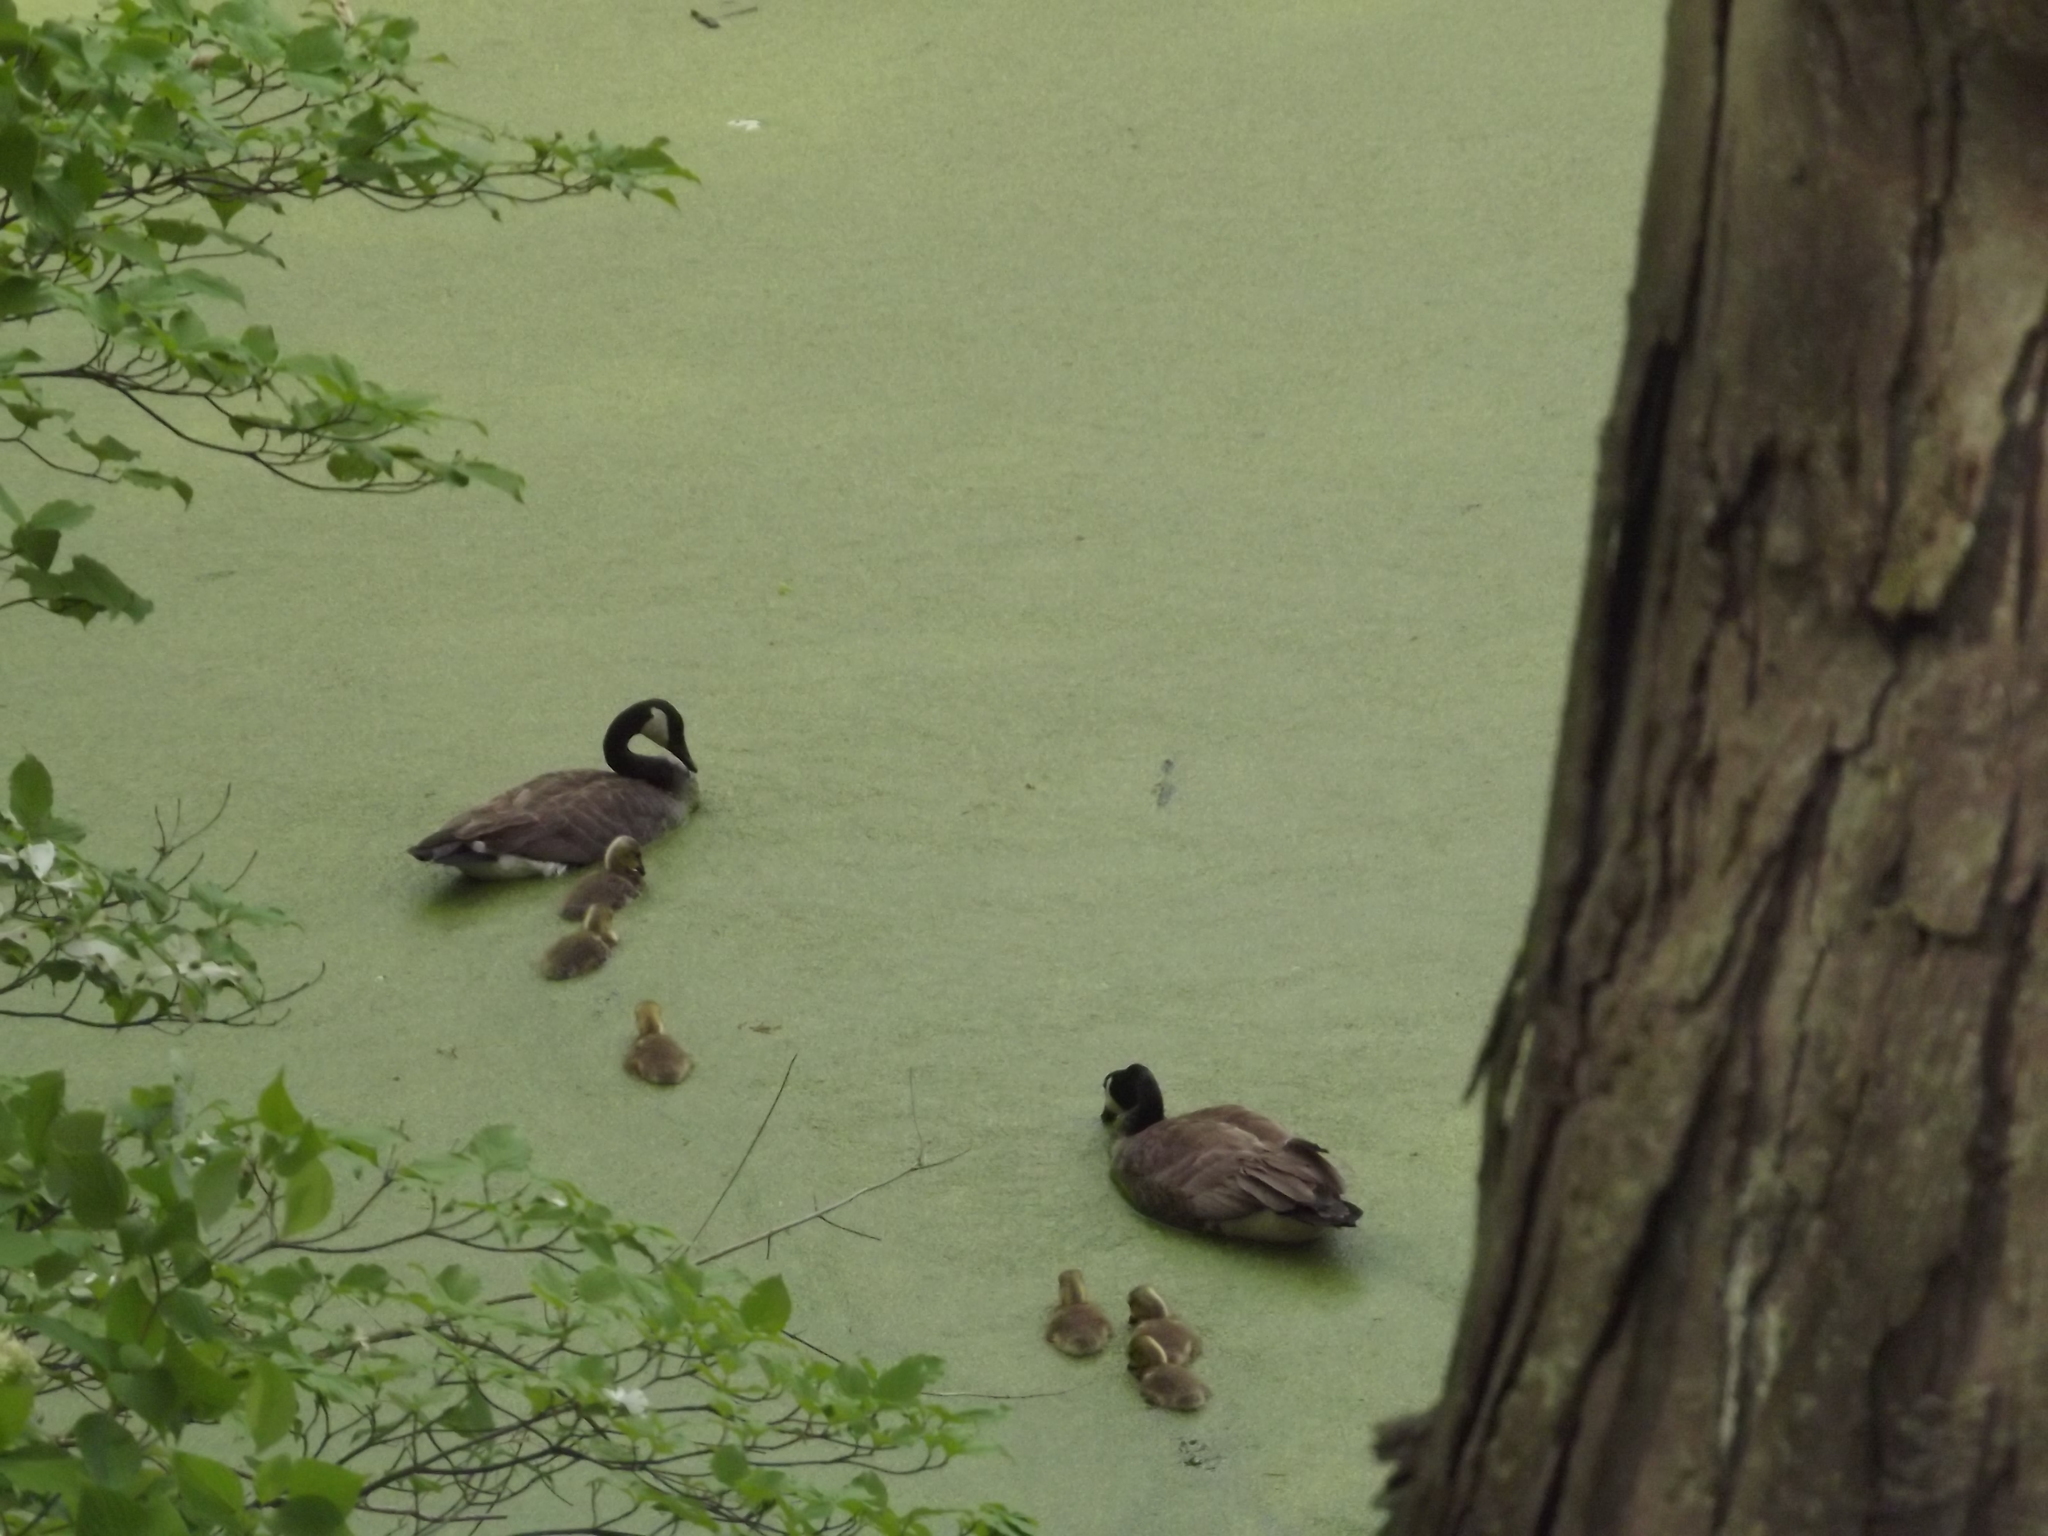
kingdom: Animalia
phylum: Chordata
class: Aves
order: Anseriformes
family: Anatidae
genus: Branta
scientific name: Branta canadensis
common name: Canada goose
